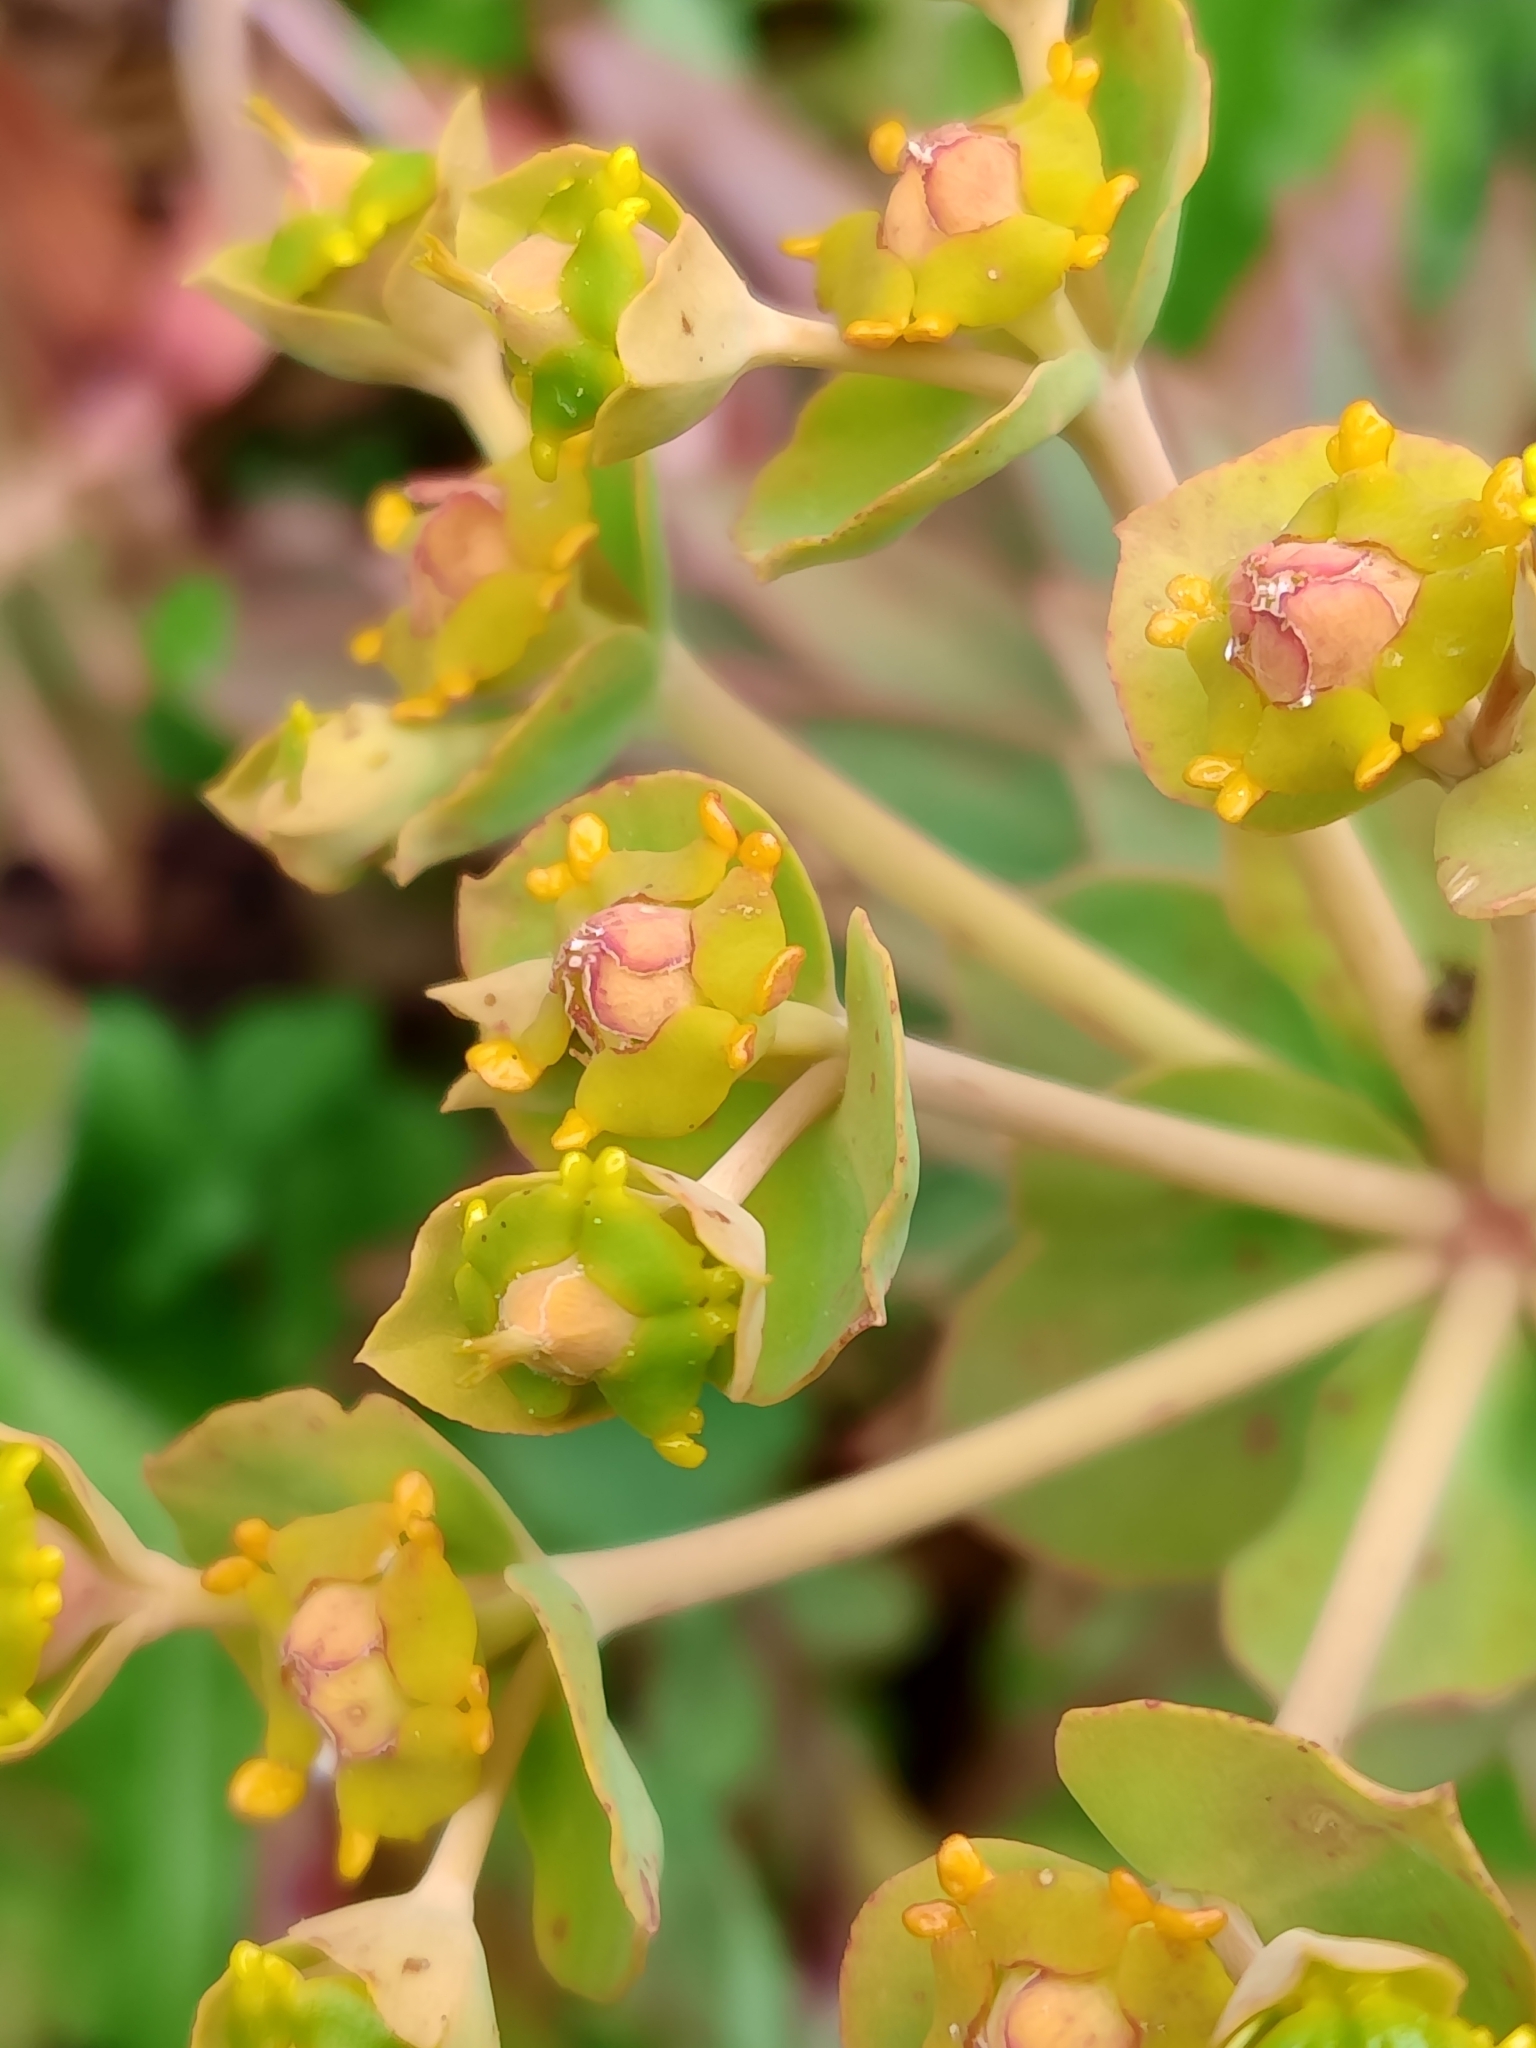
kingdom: Plantae
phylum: Tracheophyta
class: Magnoliopsida
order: Malpighiales
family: Euphorbiaceae
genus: Euphorbia
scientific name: Euphorbia oxyphylla
